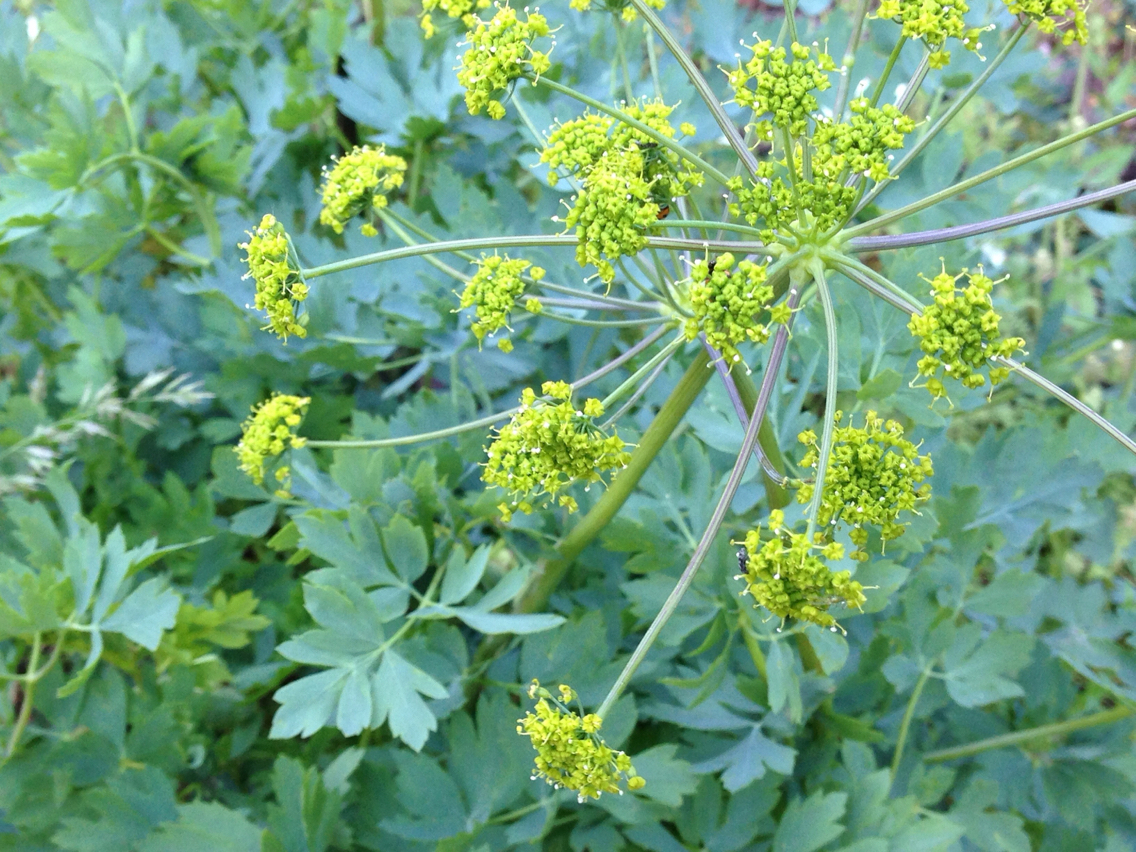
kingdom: Plantae
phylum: Tracheophyta
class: Magnoliopsida
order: Apiales
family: Apiaceae
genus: Lomatium
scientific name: Lomatium californicum
